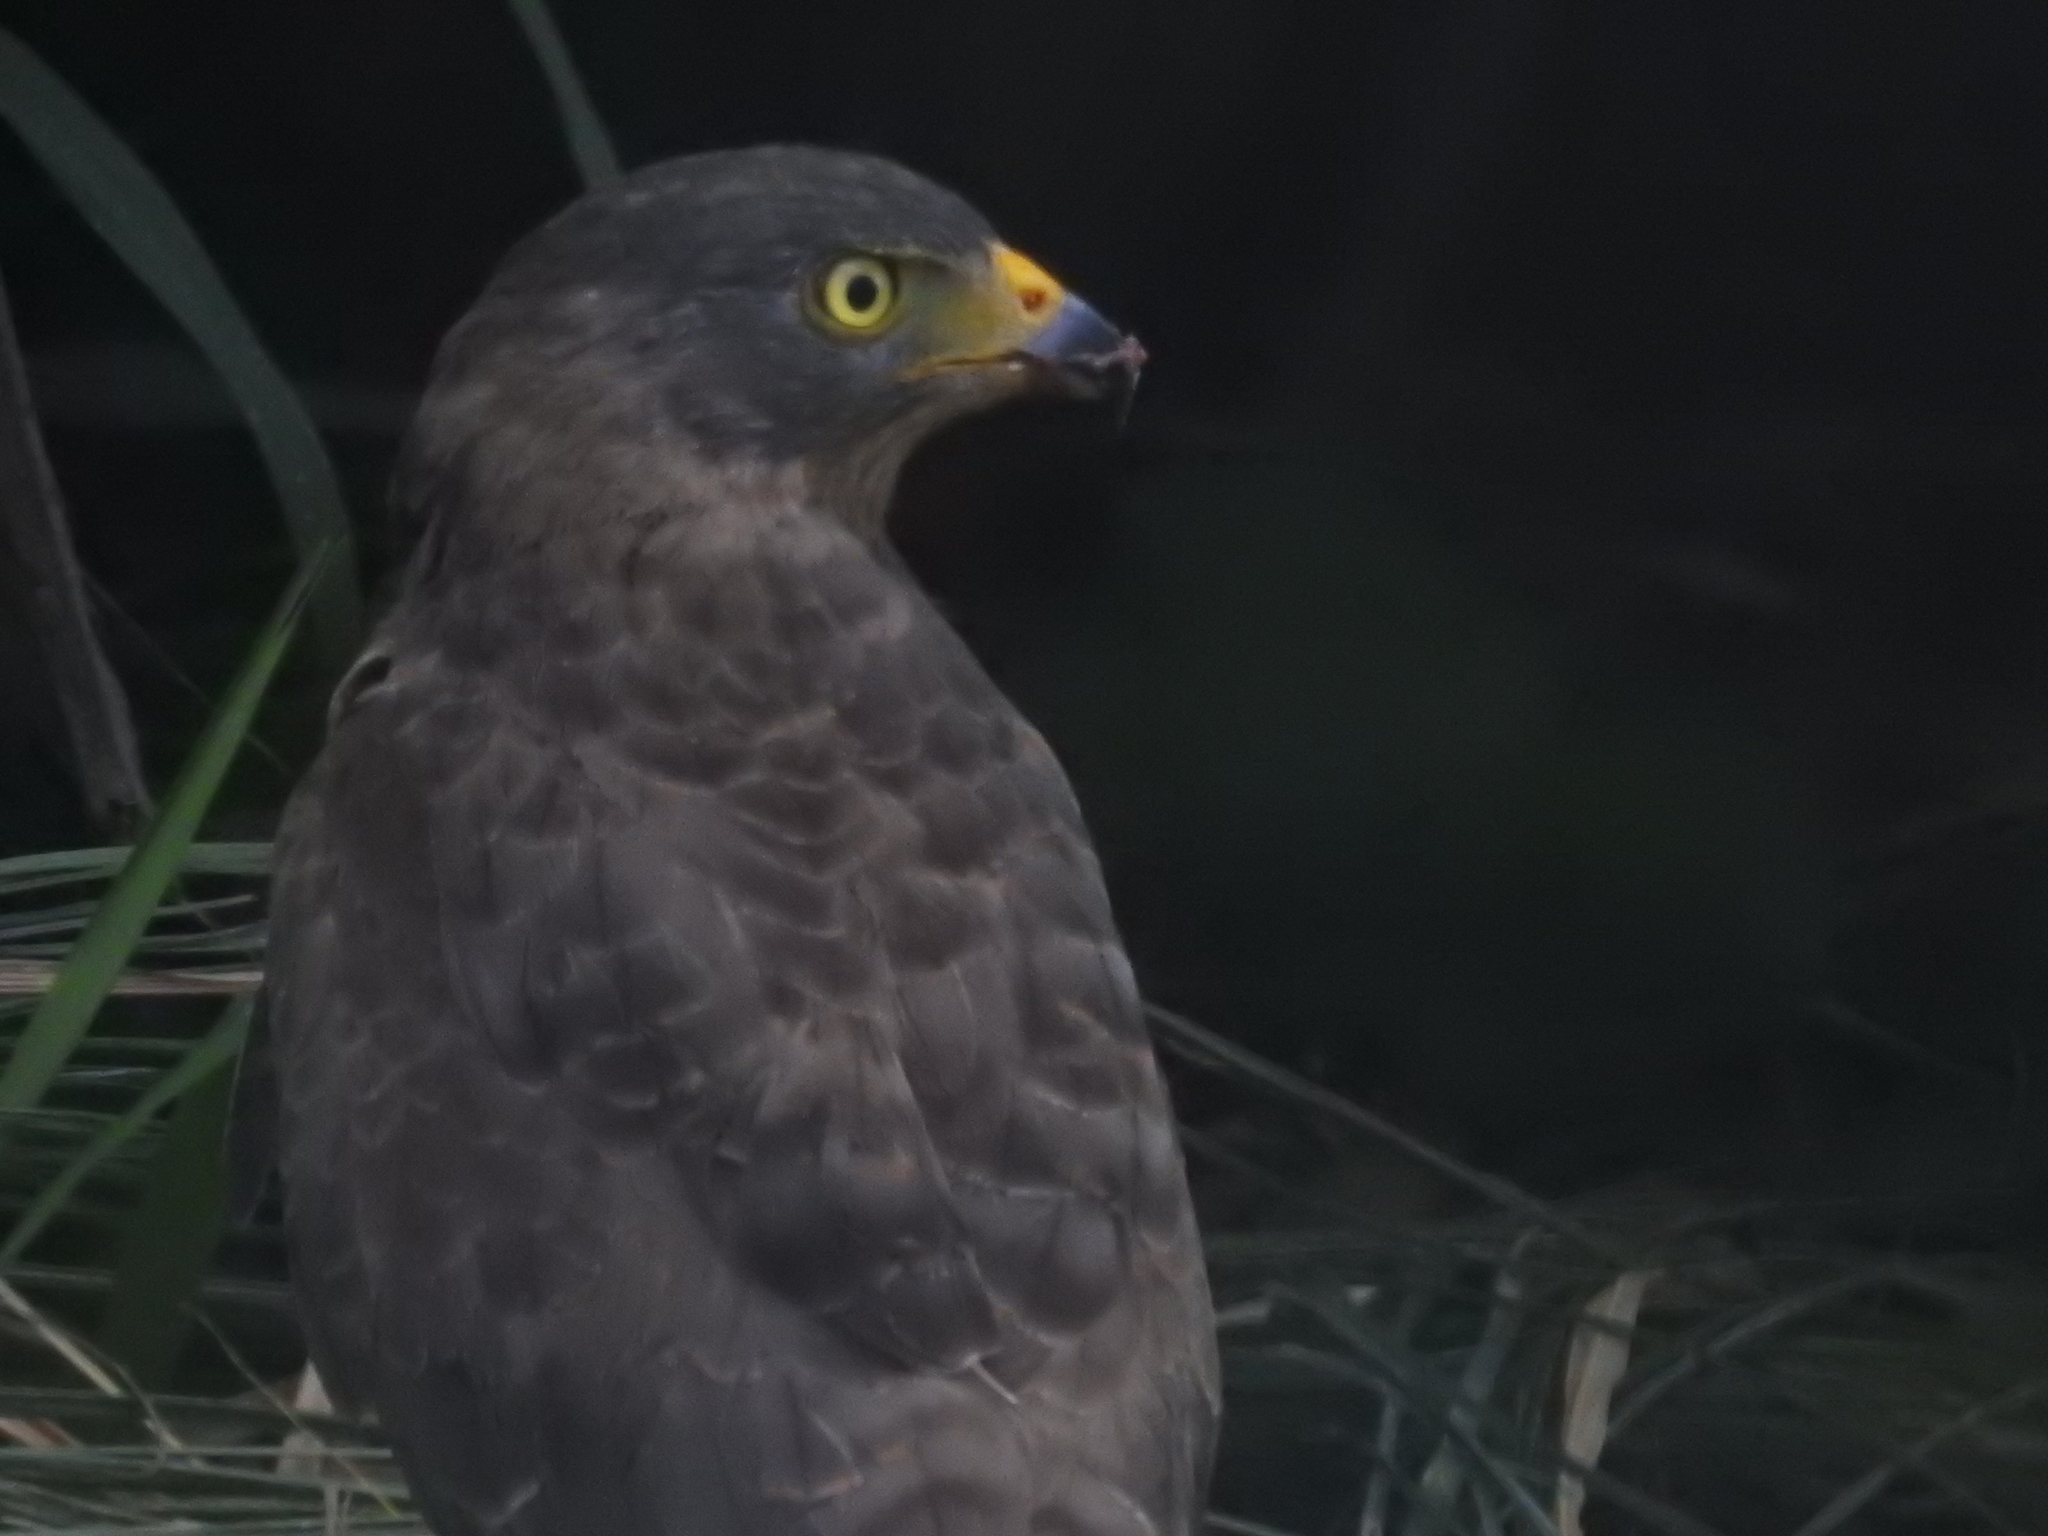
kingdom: Animalia
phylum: Chordata
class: Aves
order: Accipitriformes
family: Accipitridae
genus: Rupornis
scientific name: Rupornis magnirostris
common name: Roadside hawk
